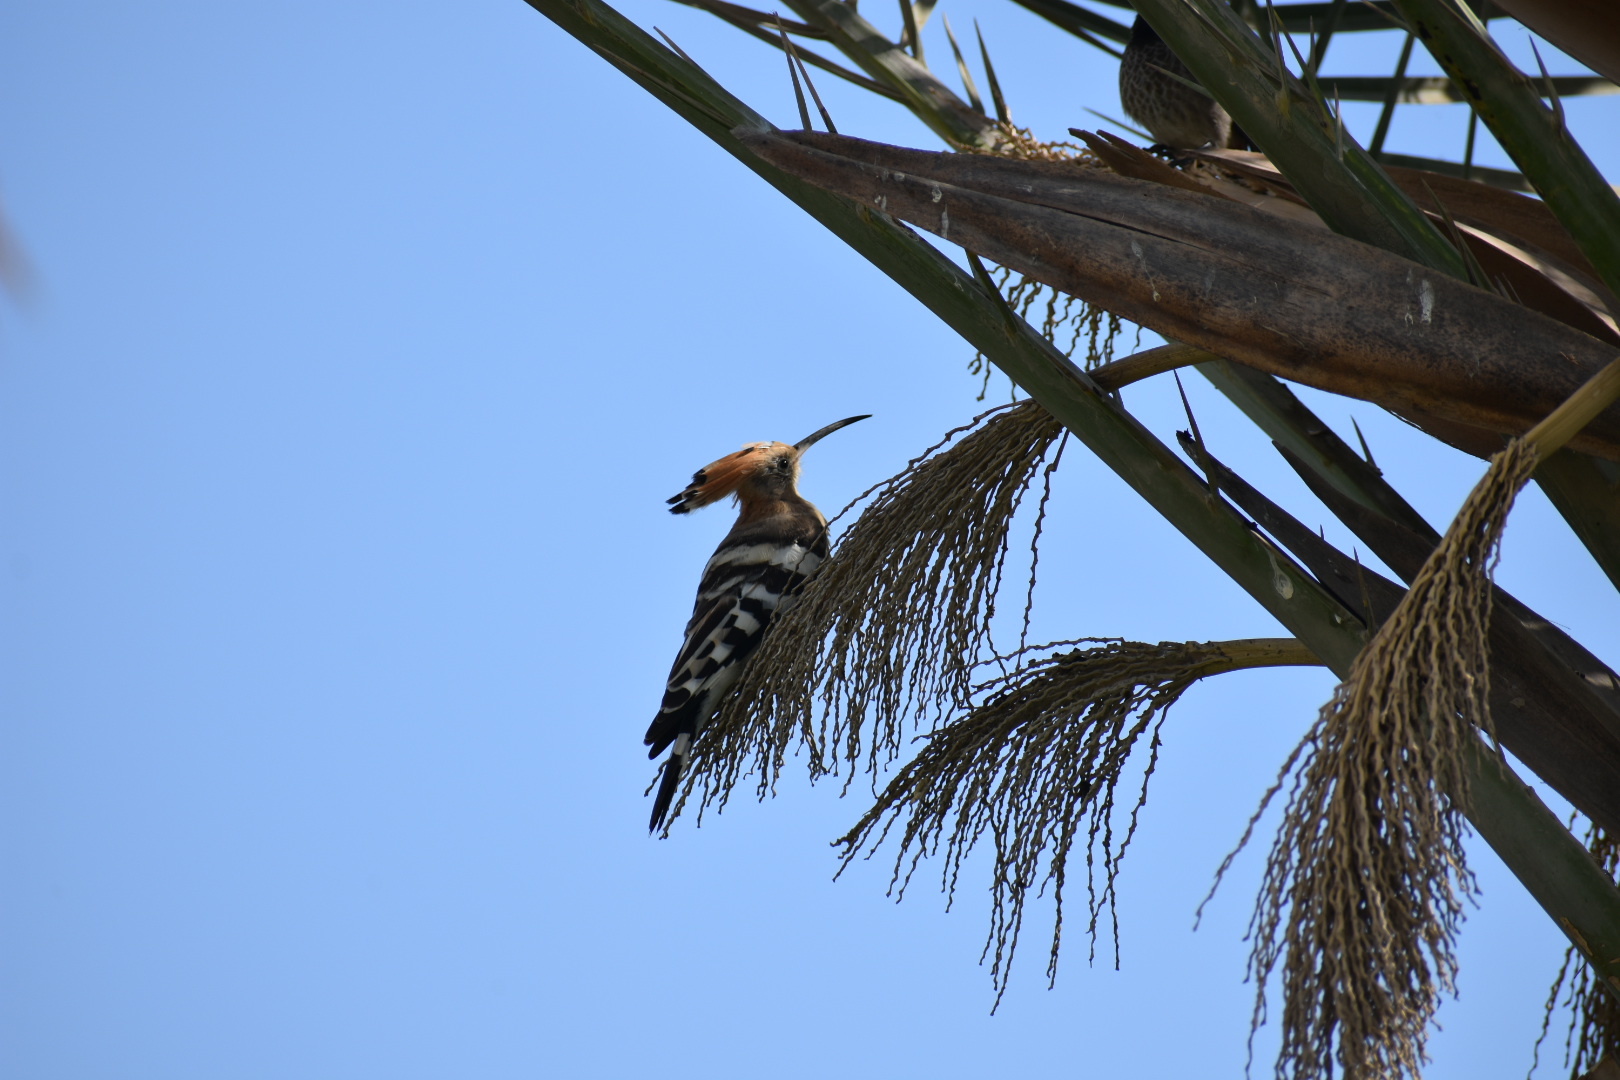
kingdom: Animalia
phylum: Chordata
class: Aves
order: Bucerotiformes
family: Upupidae
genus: Upupa
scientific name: Upupa epops
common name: Eurasian hoopoe
